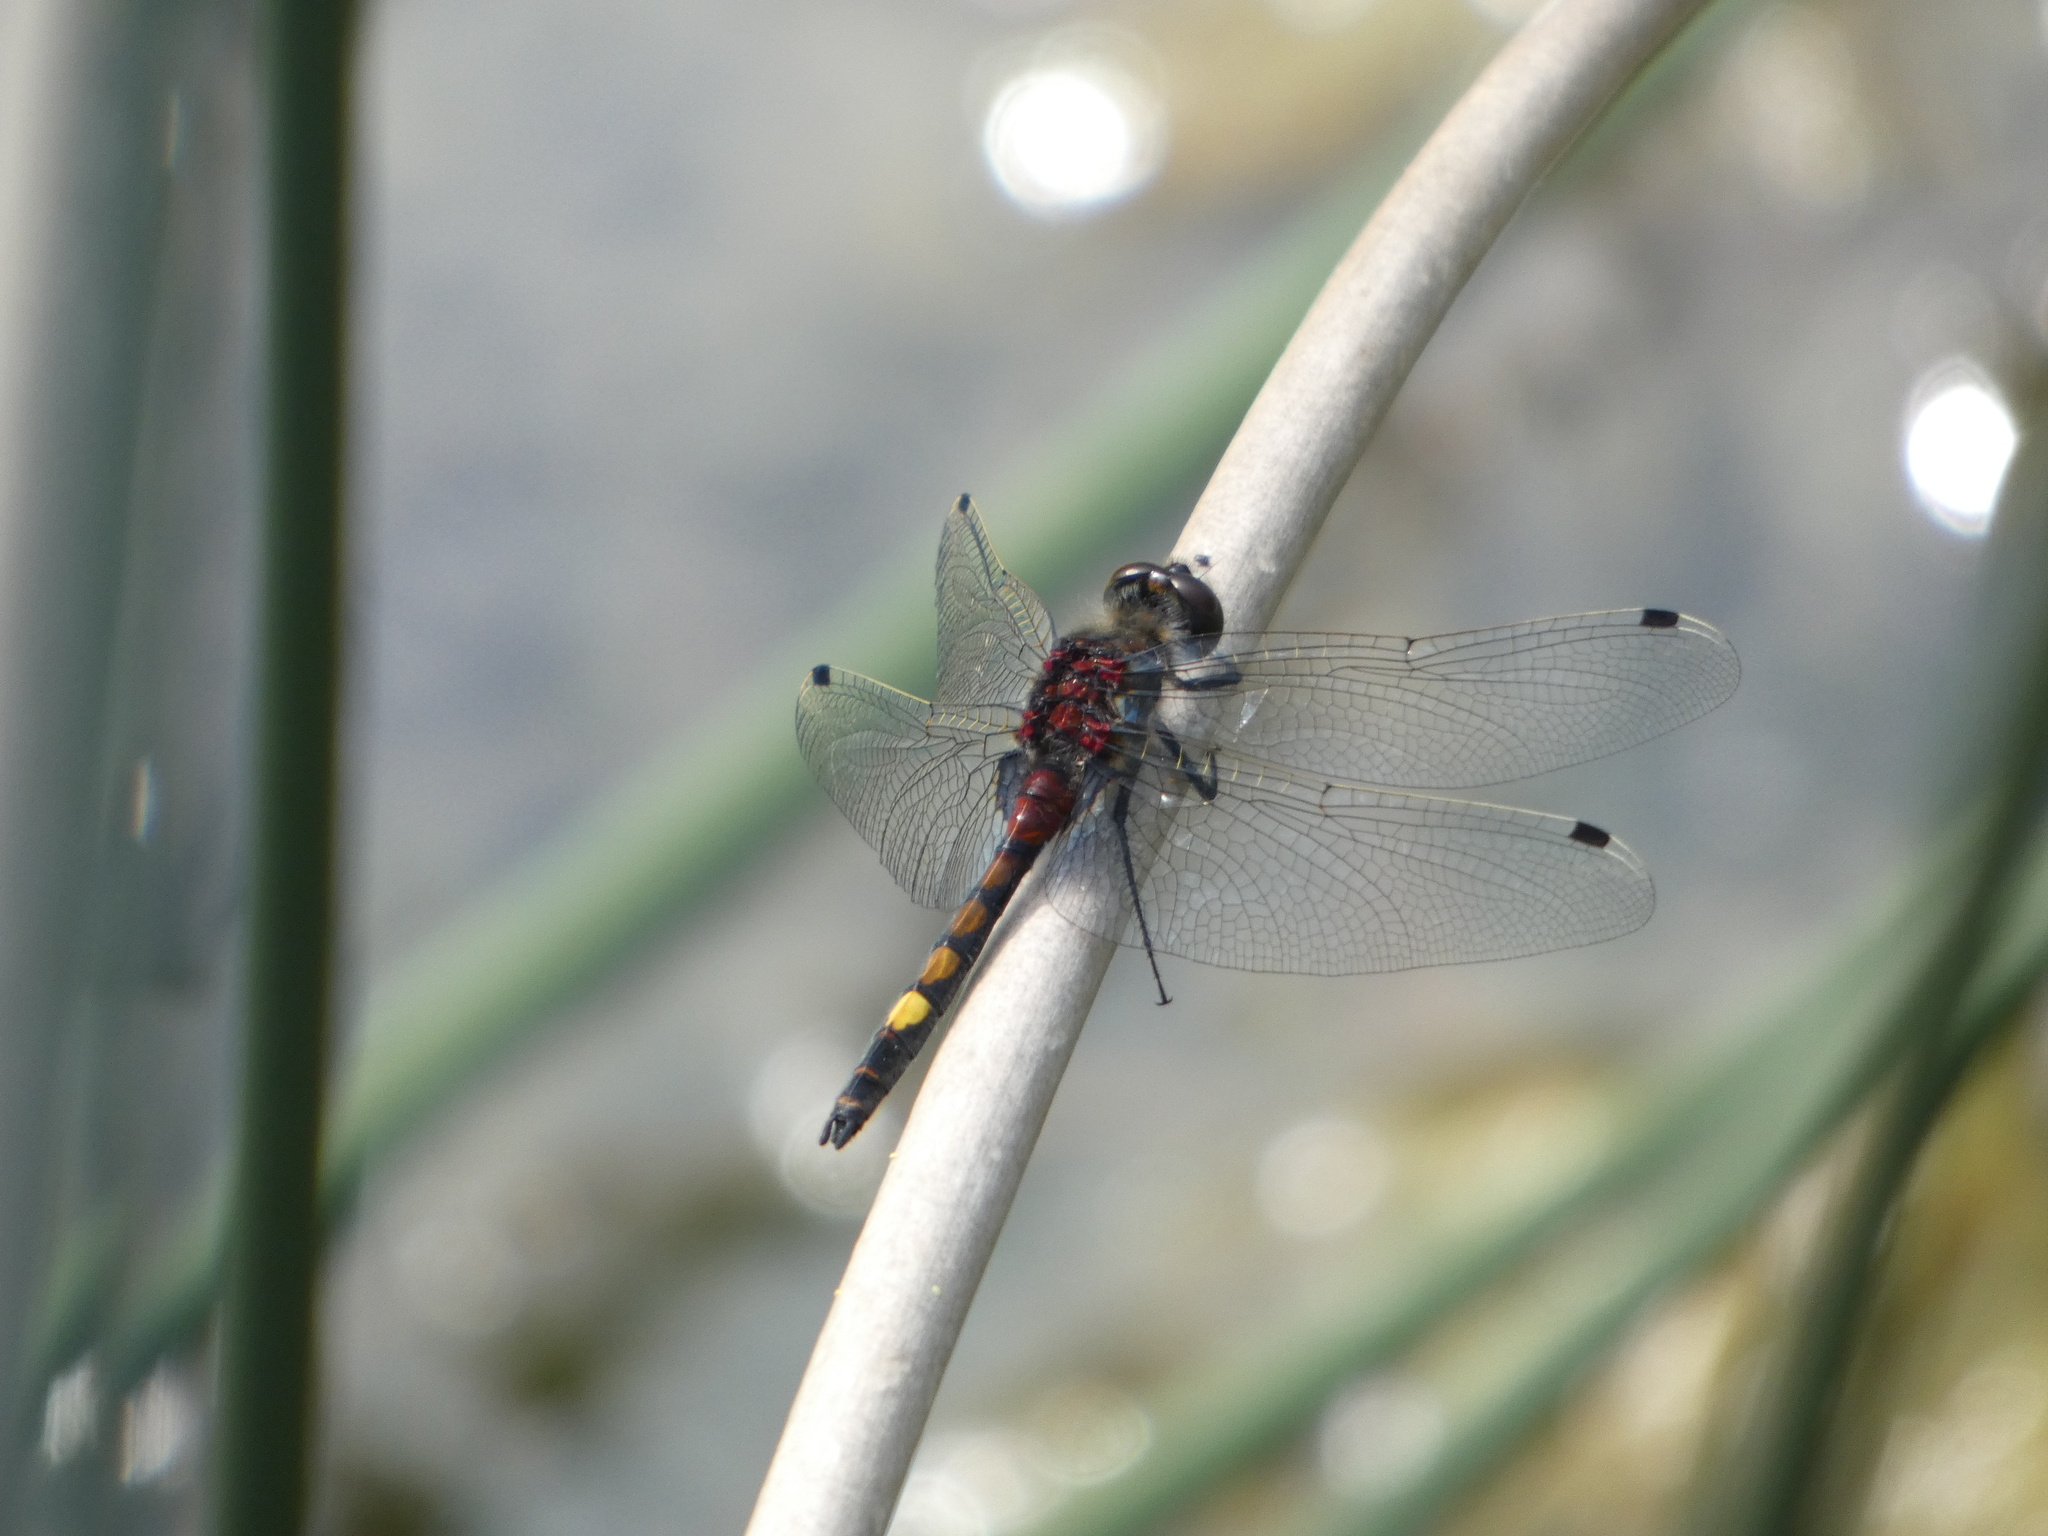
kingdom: Animalia
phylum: Arthropoda
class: Insecta
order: Odonata
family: Libellulidae
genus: Leucorrhinia
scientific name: Leucorrhinia pectoralis
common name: Yellow-spotted whiteface
